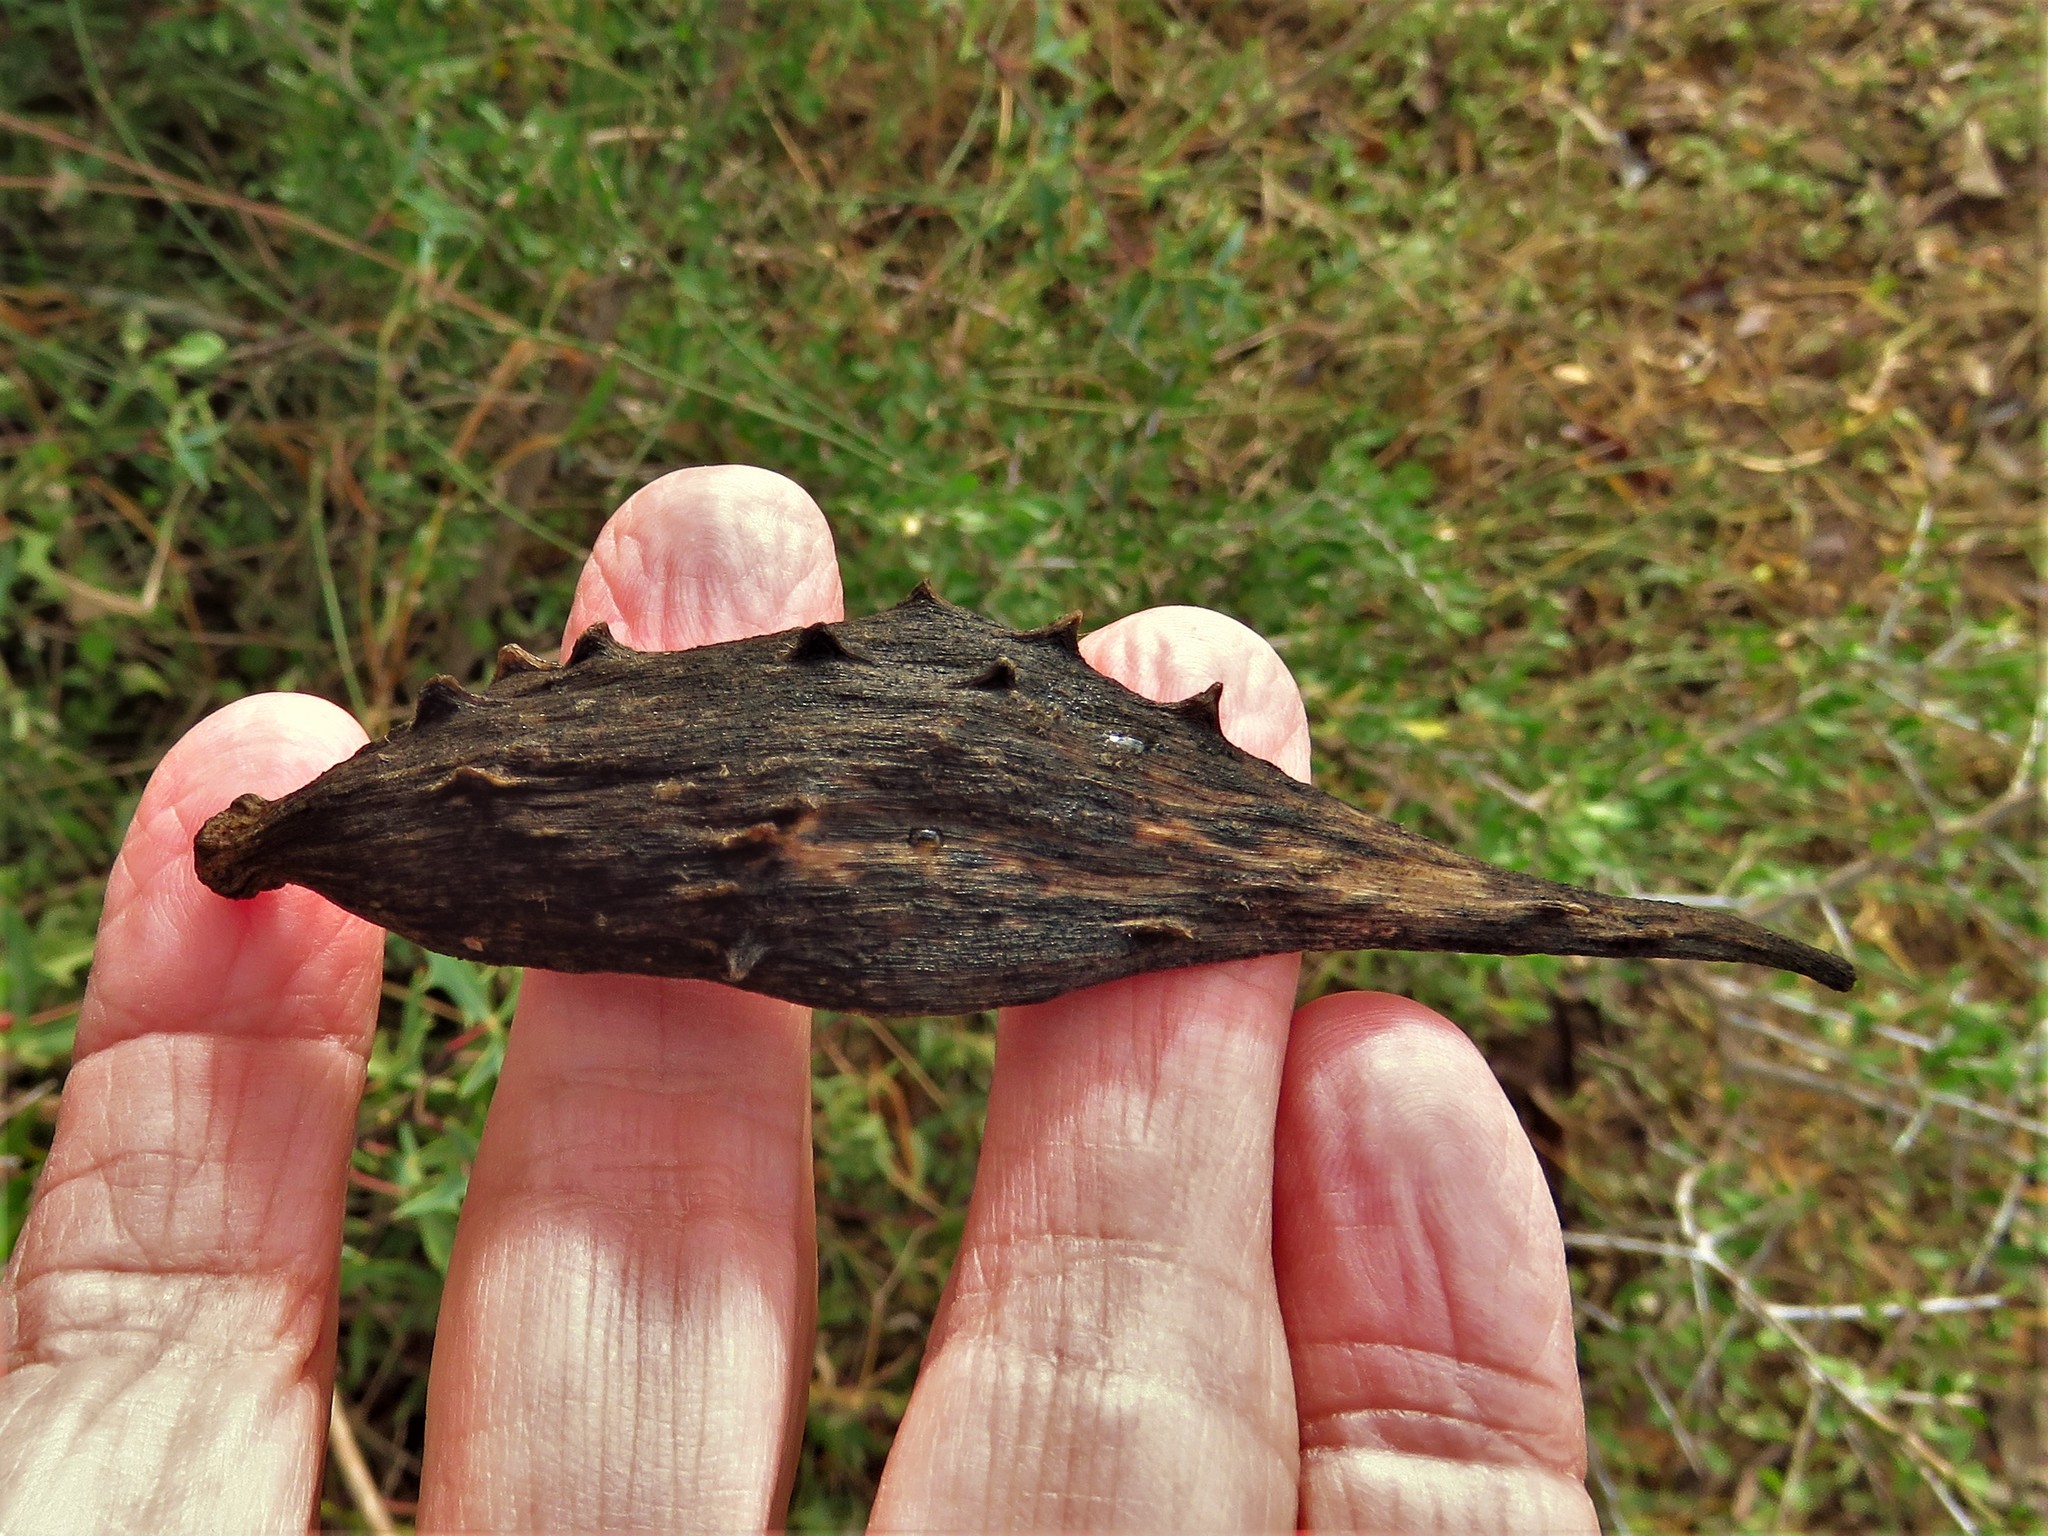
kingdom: Plantae
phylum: Tracheophyta
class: Magnoliopsida
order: Gentianales
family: Apocynaceae
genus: Dictyanthus
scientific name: Dictyanthus reticulatus
